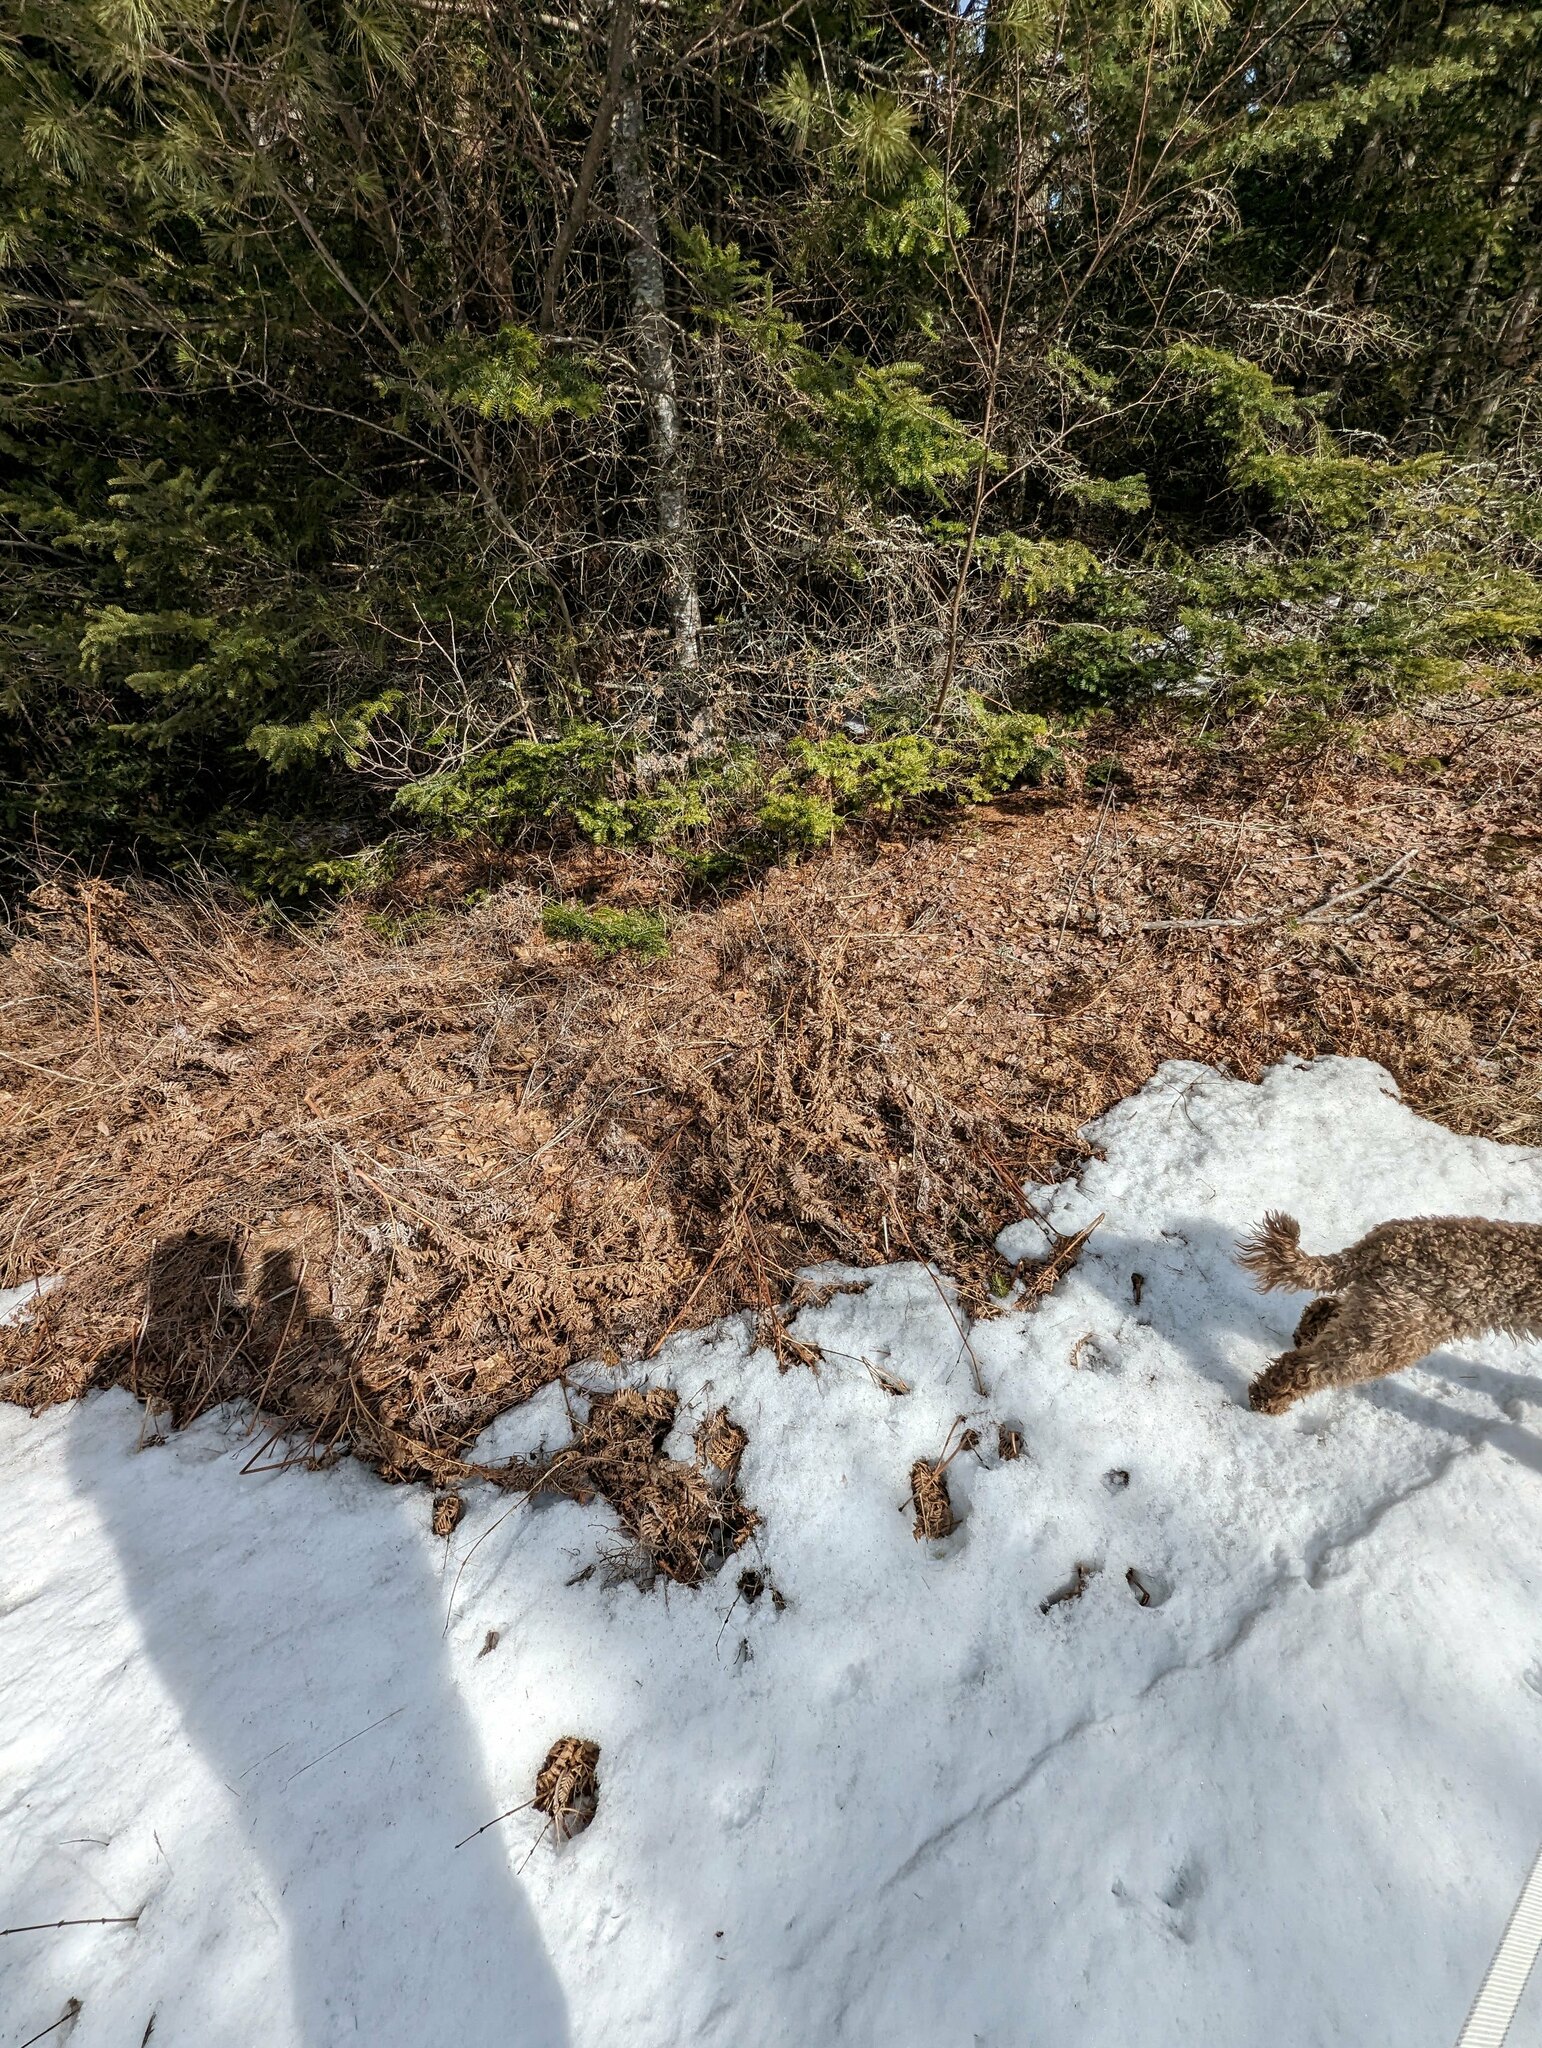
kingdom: Plantae
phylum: Tracheophyta
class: Polypodiopsida
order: Polypodiales
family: Dennstaedtiaceae
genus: Pteridium
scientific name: Pteridium aquilinum
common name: Bracken
